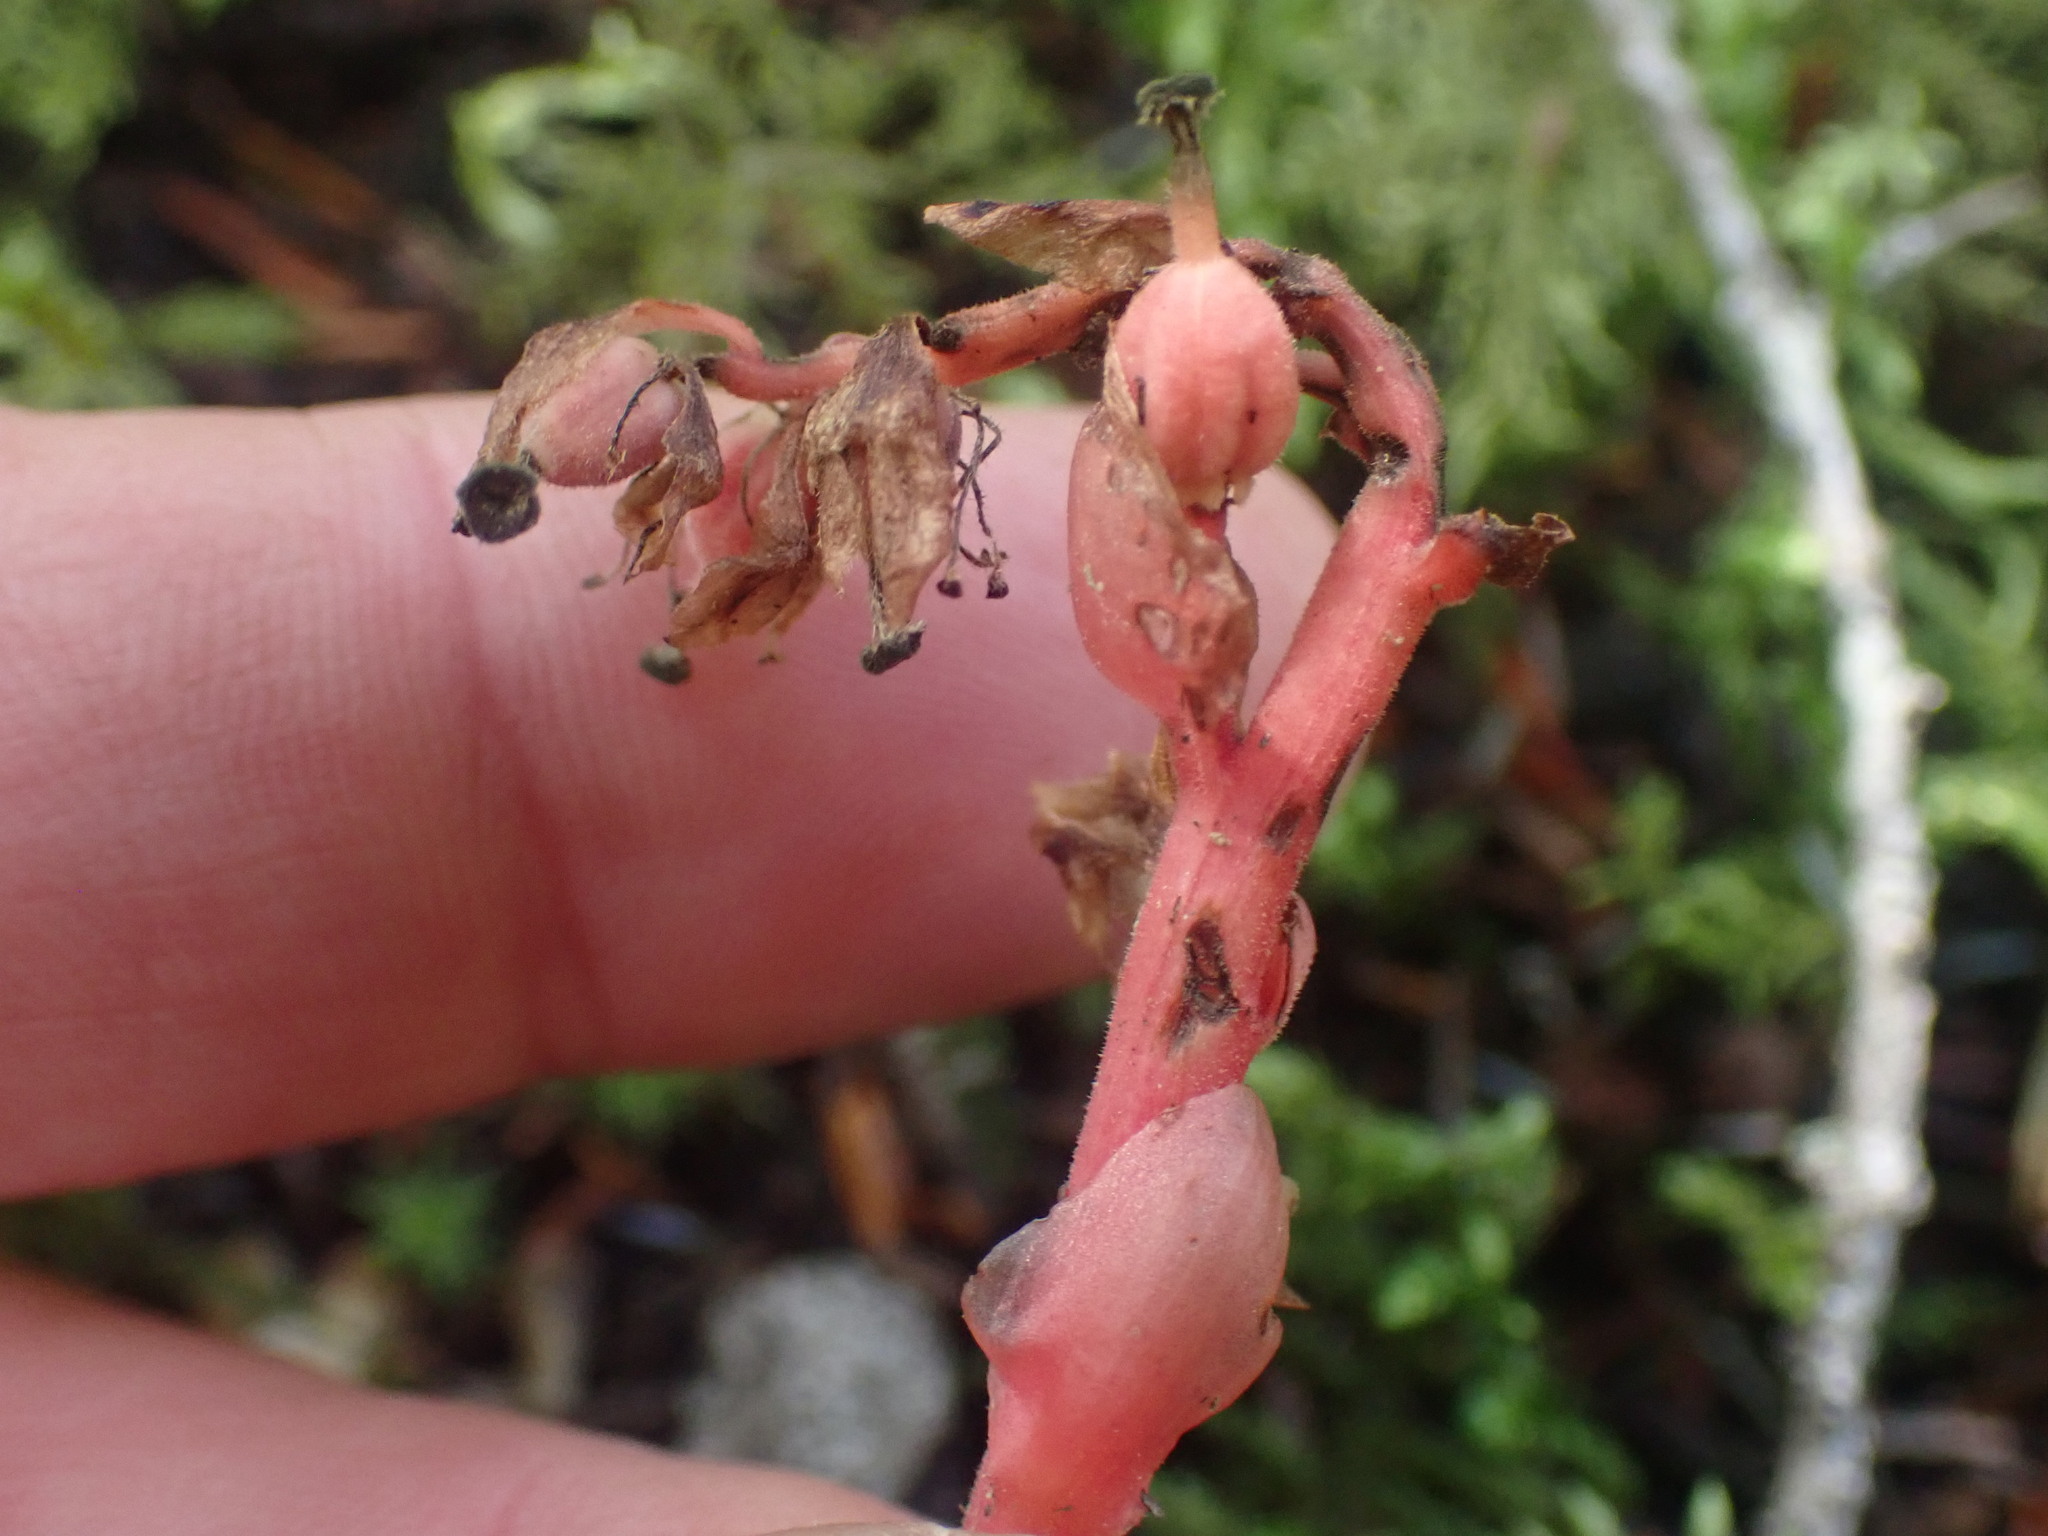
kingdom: Plantae
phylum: Tracheophyta
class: Magnoliopsida
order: Ericales
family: Ericaceae
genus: Hypopitys
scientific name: Hypopitys monotropa
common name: Yellow bird's-nest
